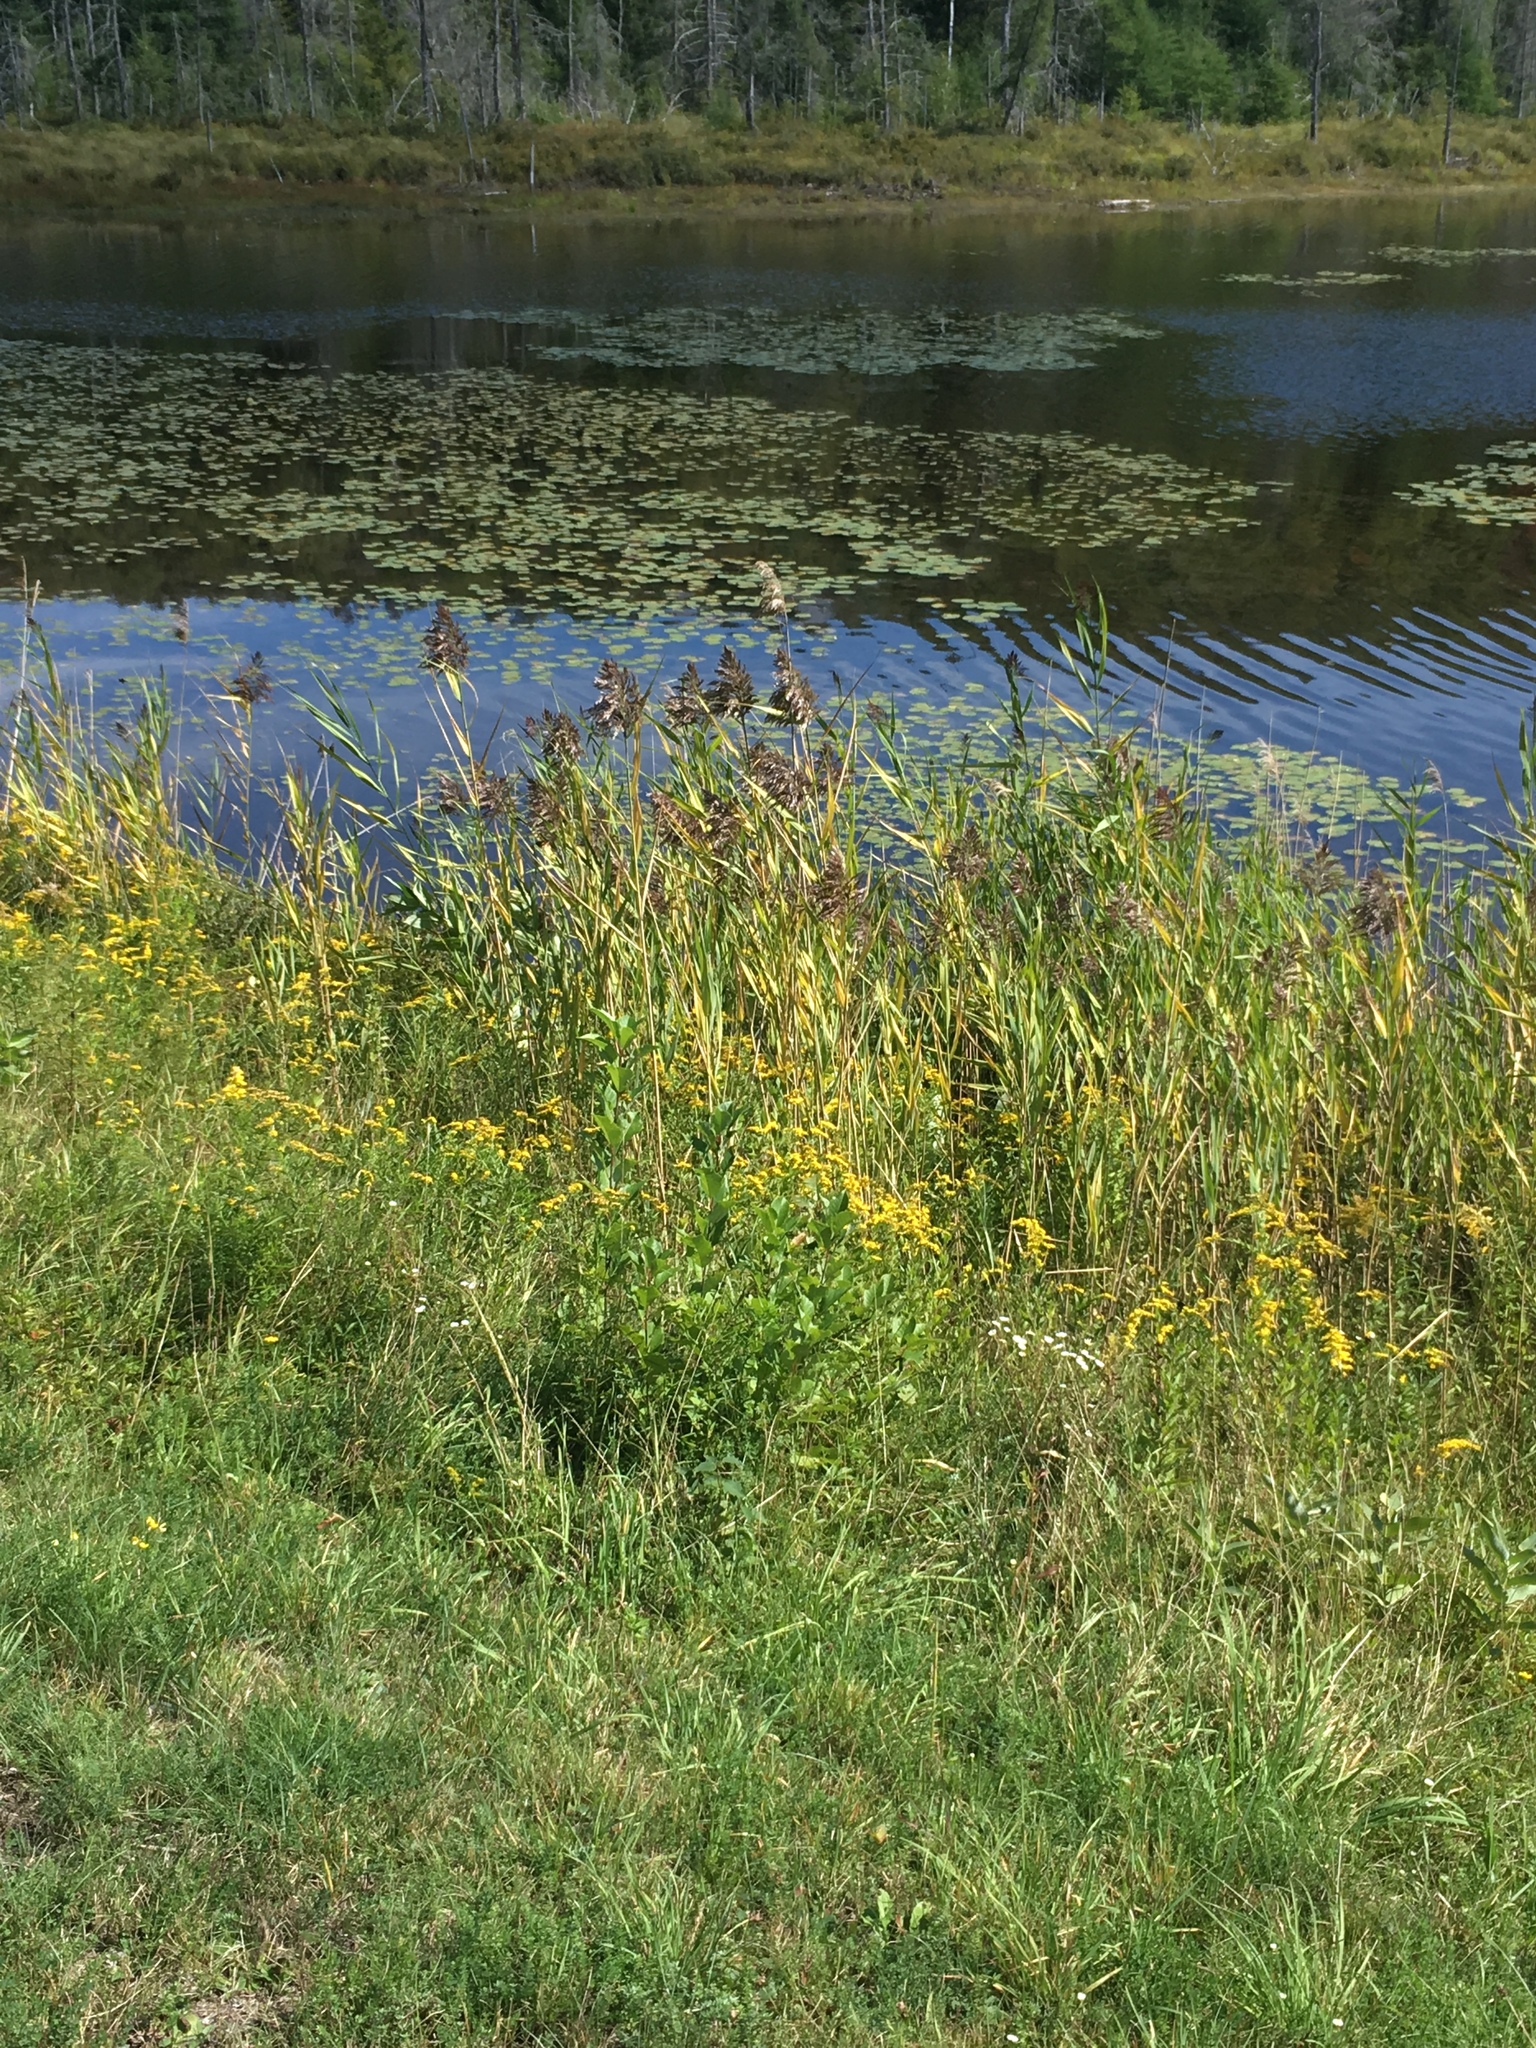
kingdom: Plantae
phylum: Tracheophyta
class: Liliopsida
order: Poales
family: Poaceae
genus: Phragmites
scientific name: Phragmites australis
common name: Common reed
